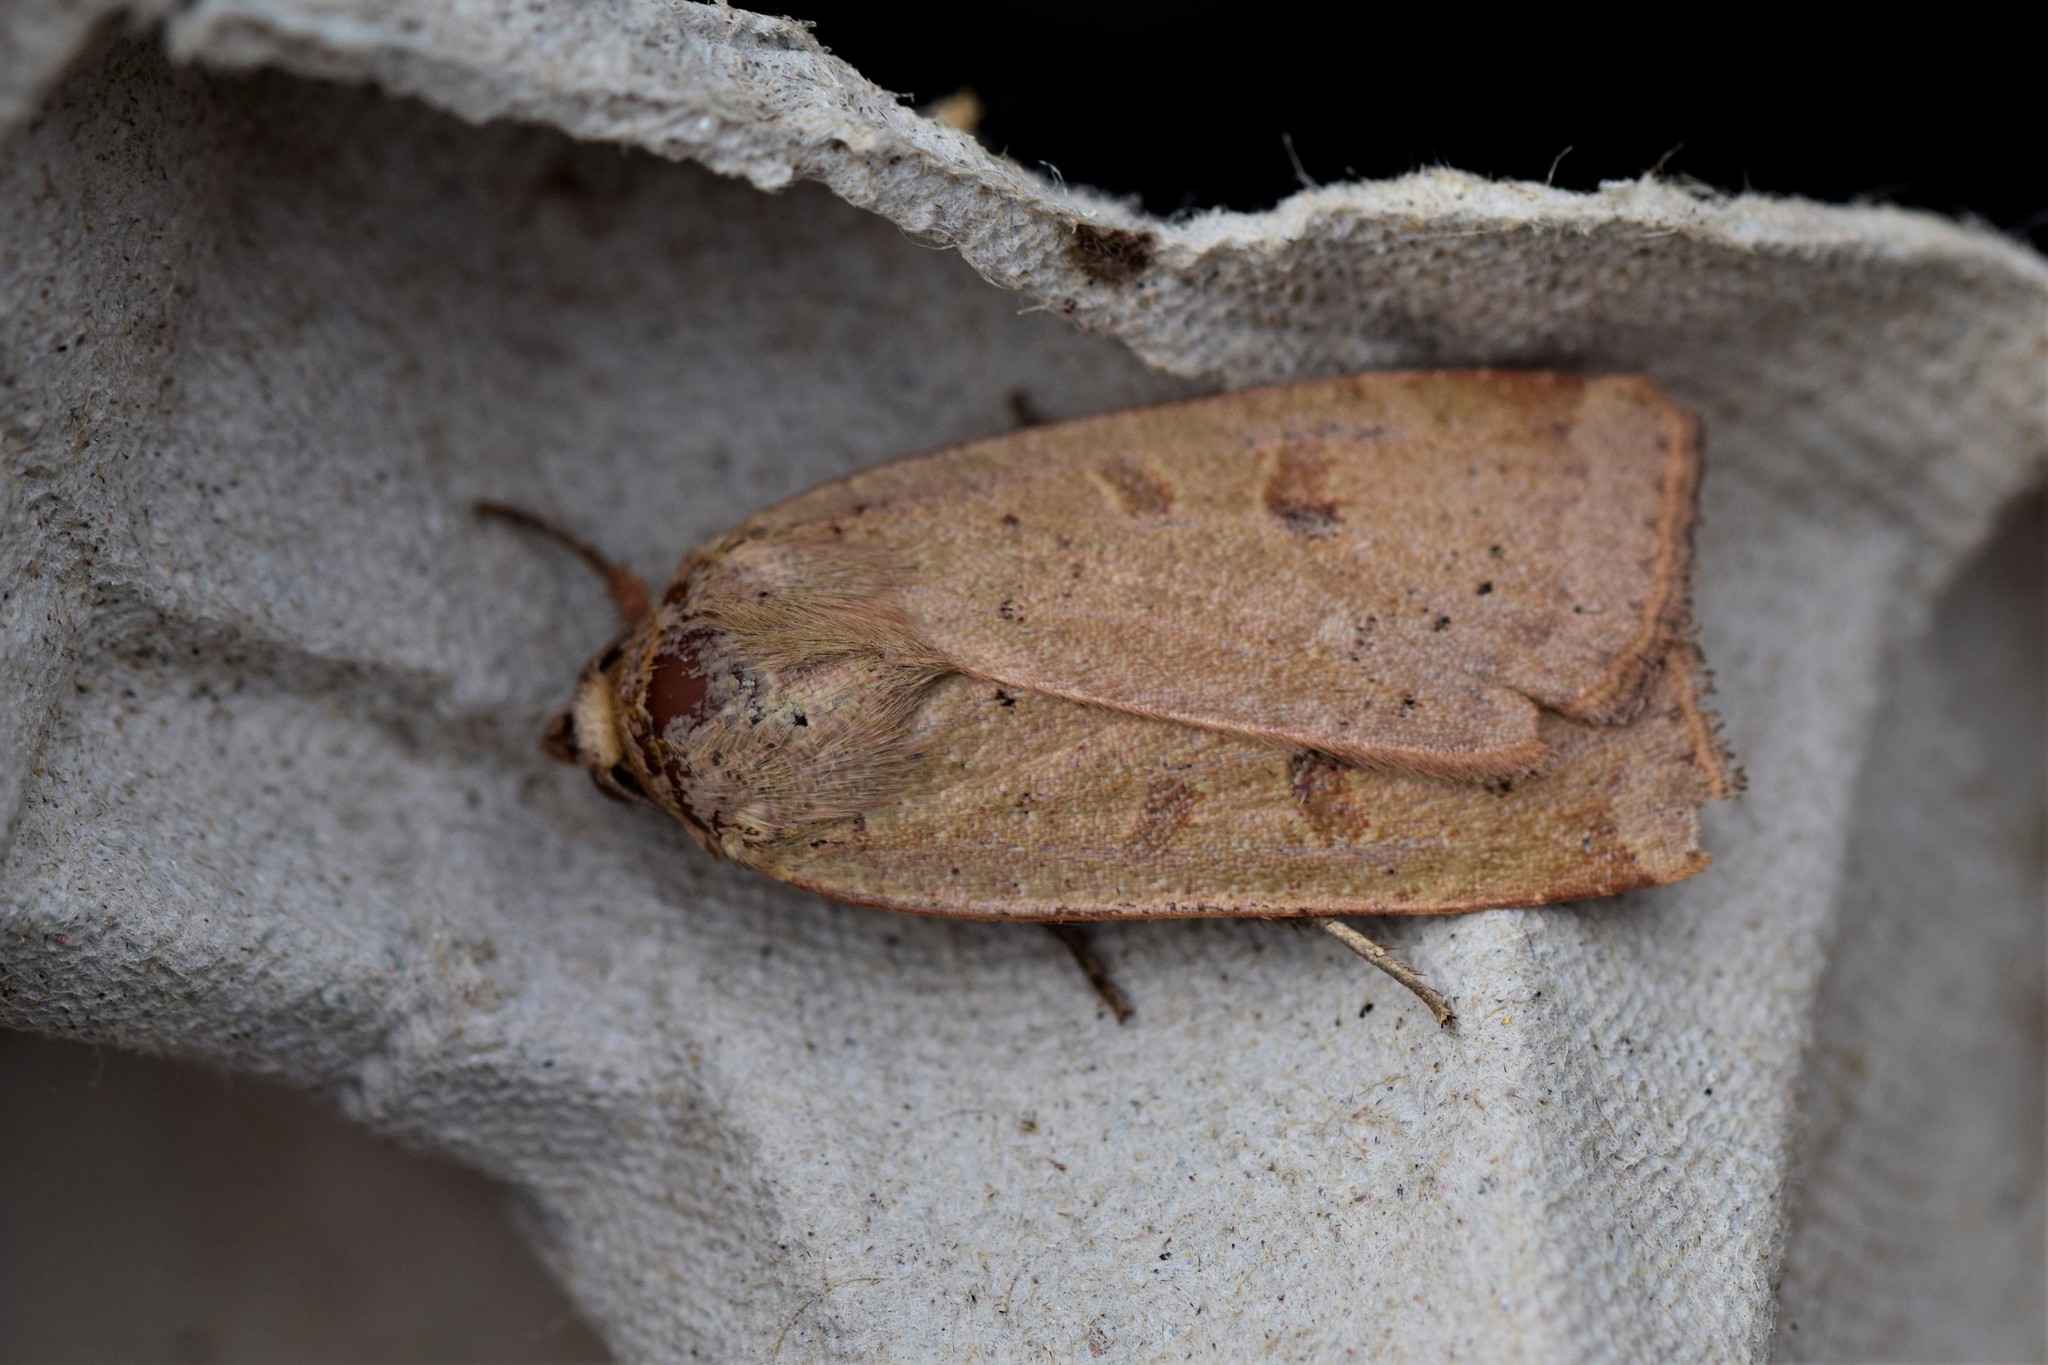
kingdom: Animalia
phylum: Arthropoda
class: Insecta
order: Lepidoptera
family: Noctuidae
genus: Noctua
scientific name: Noctua comes
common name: Lesser yellow underwing
